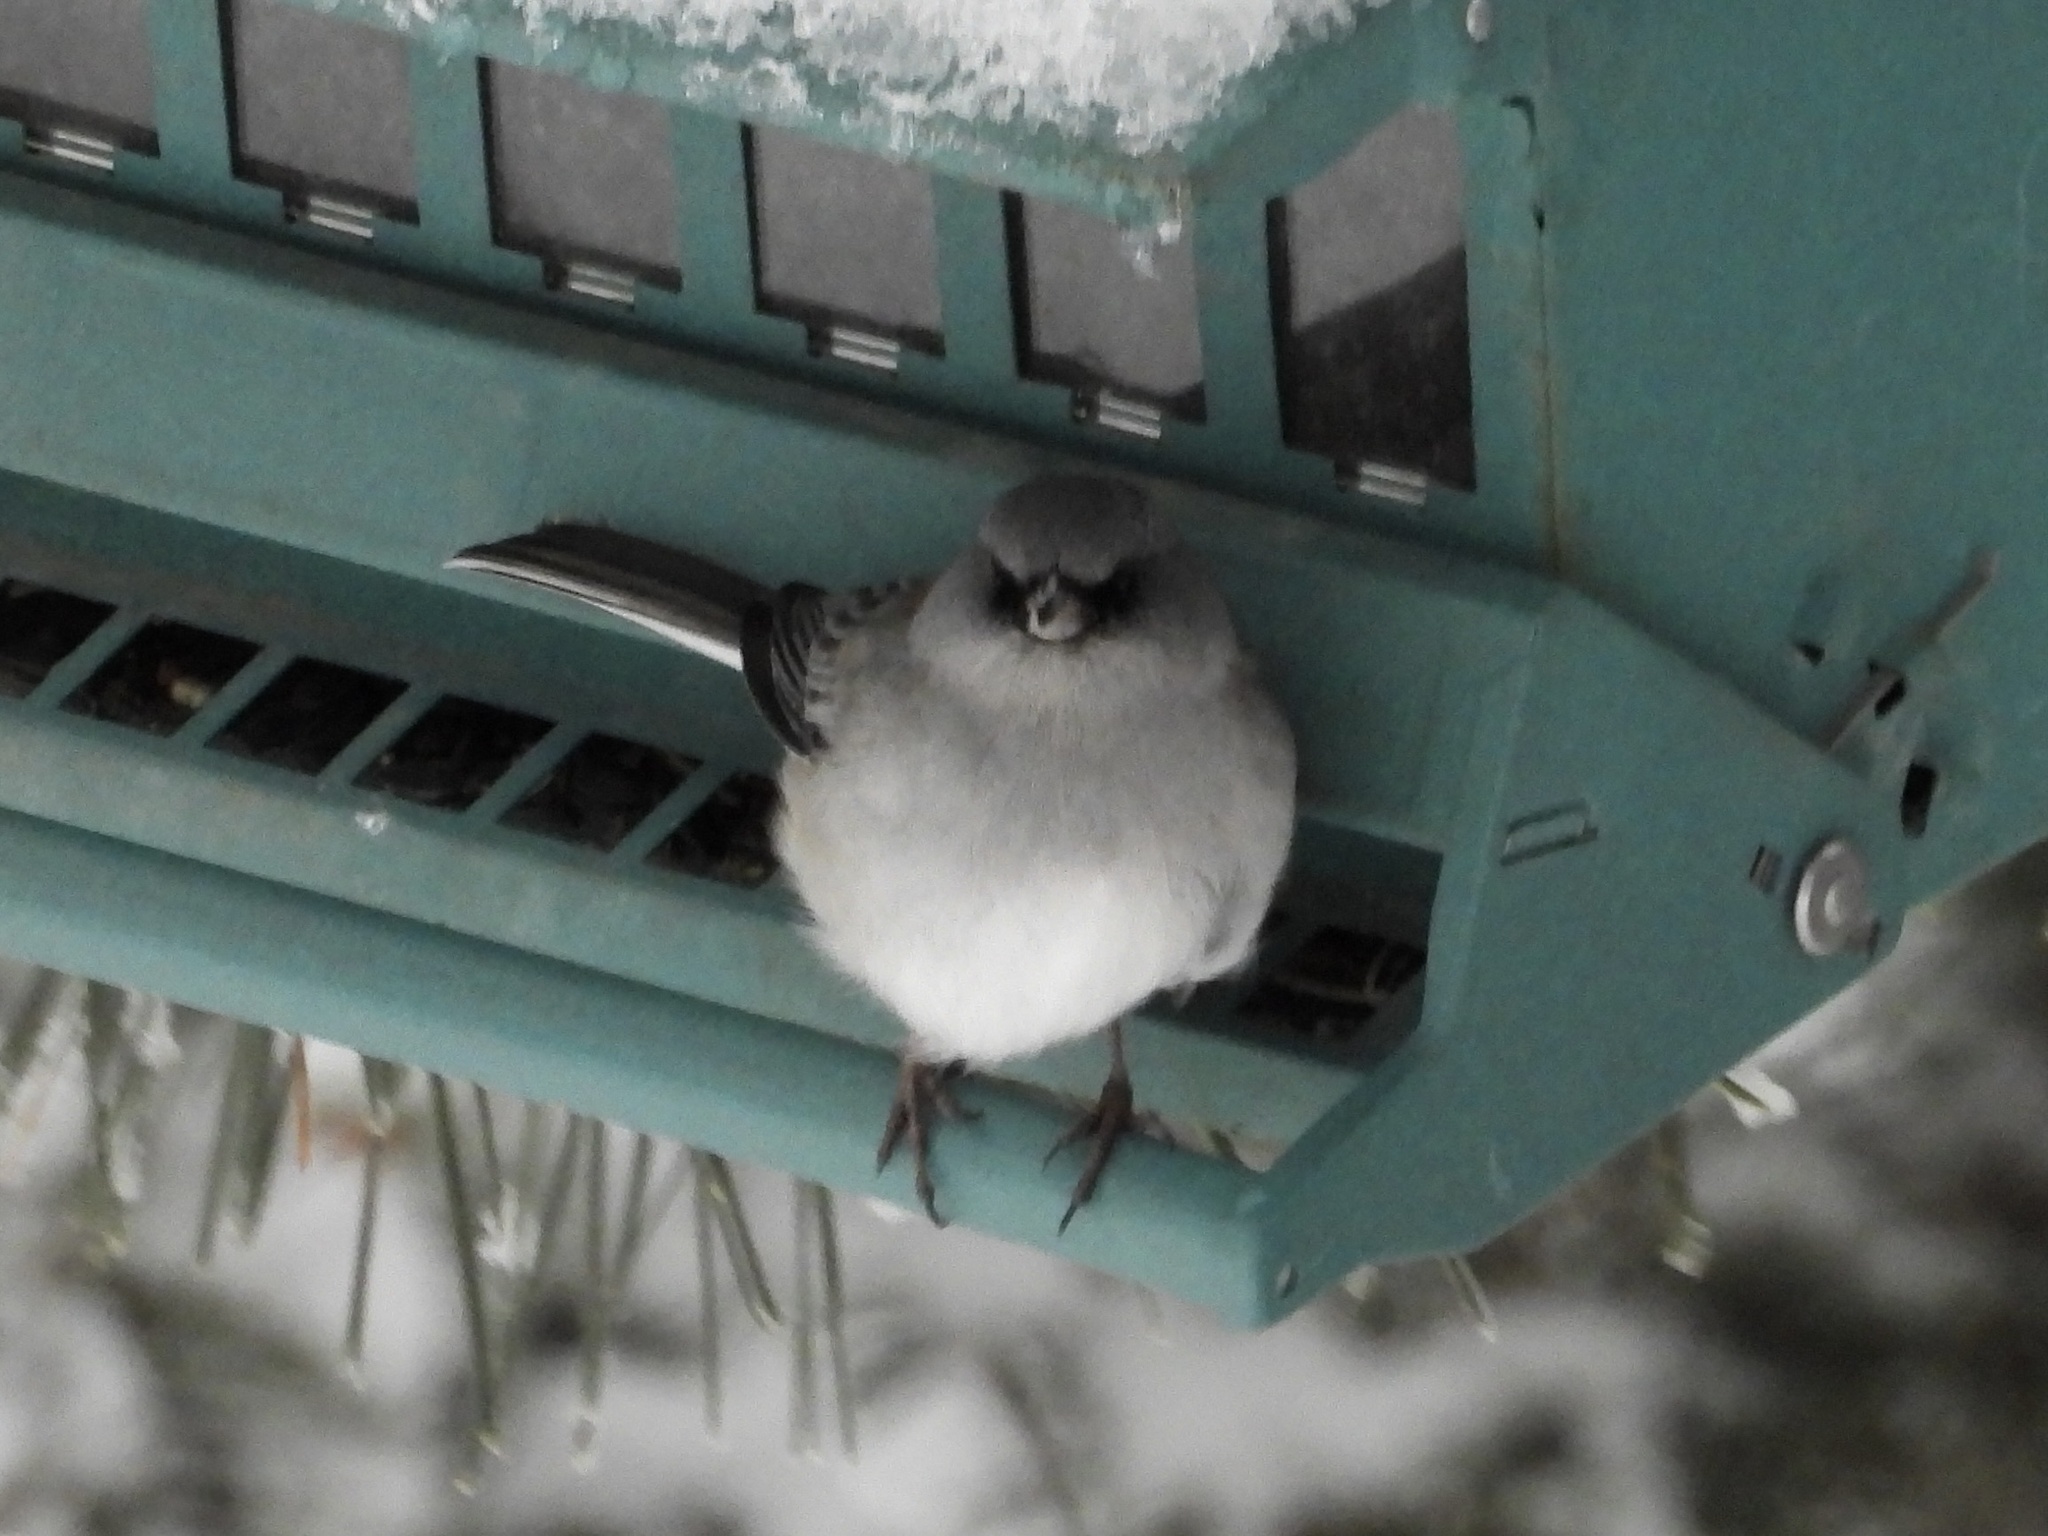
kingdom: Animalia
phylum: Chordata
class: Aves
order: Passeriformes
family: Passerellidae
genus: Junco
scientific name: Junco hyemalis
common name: Dark-eyed junco
